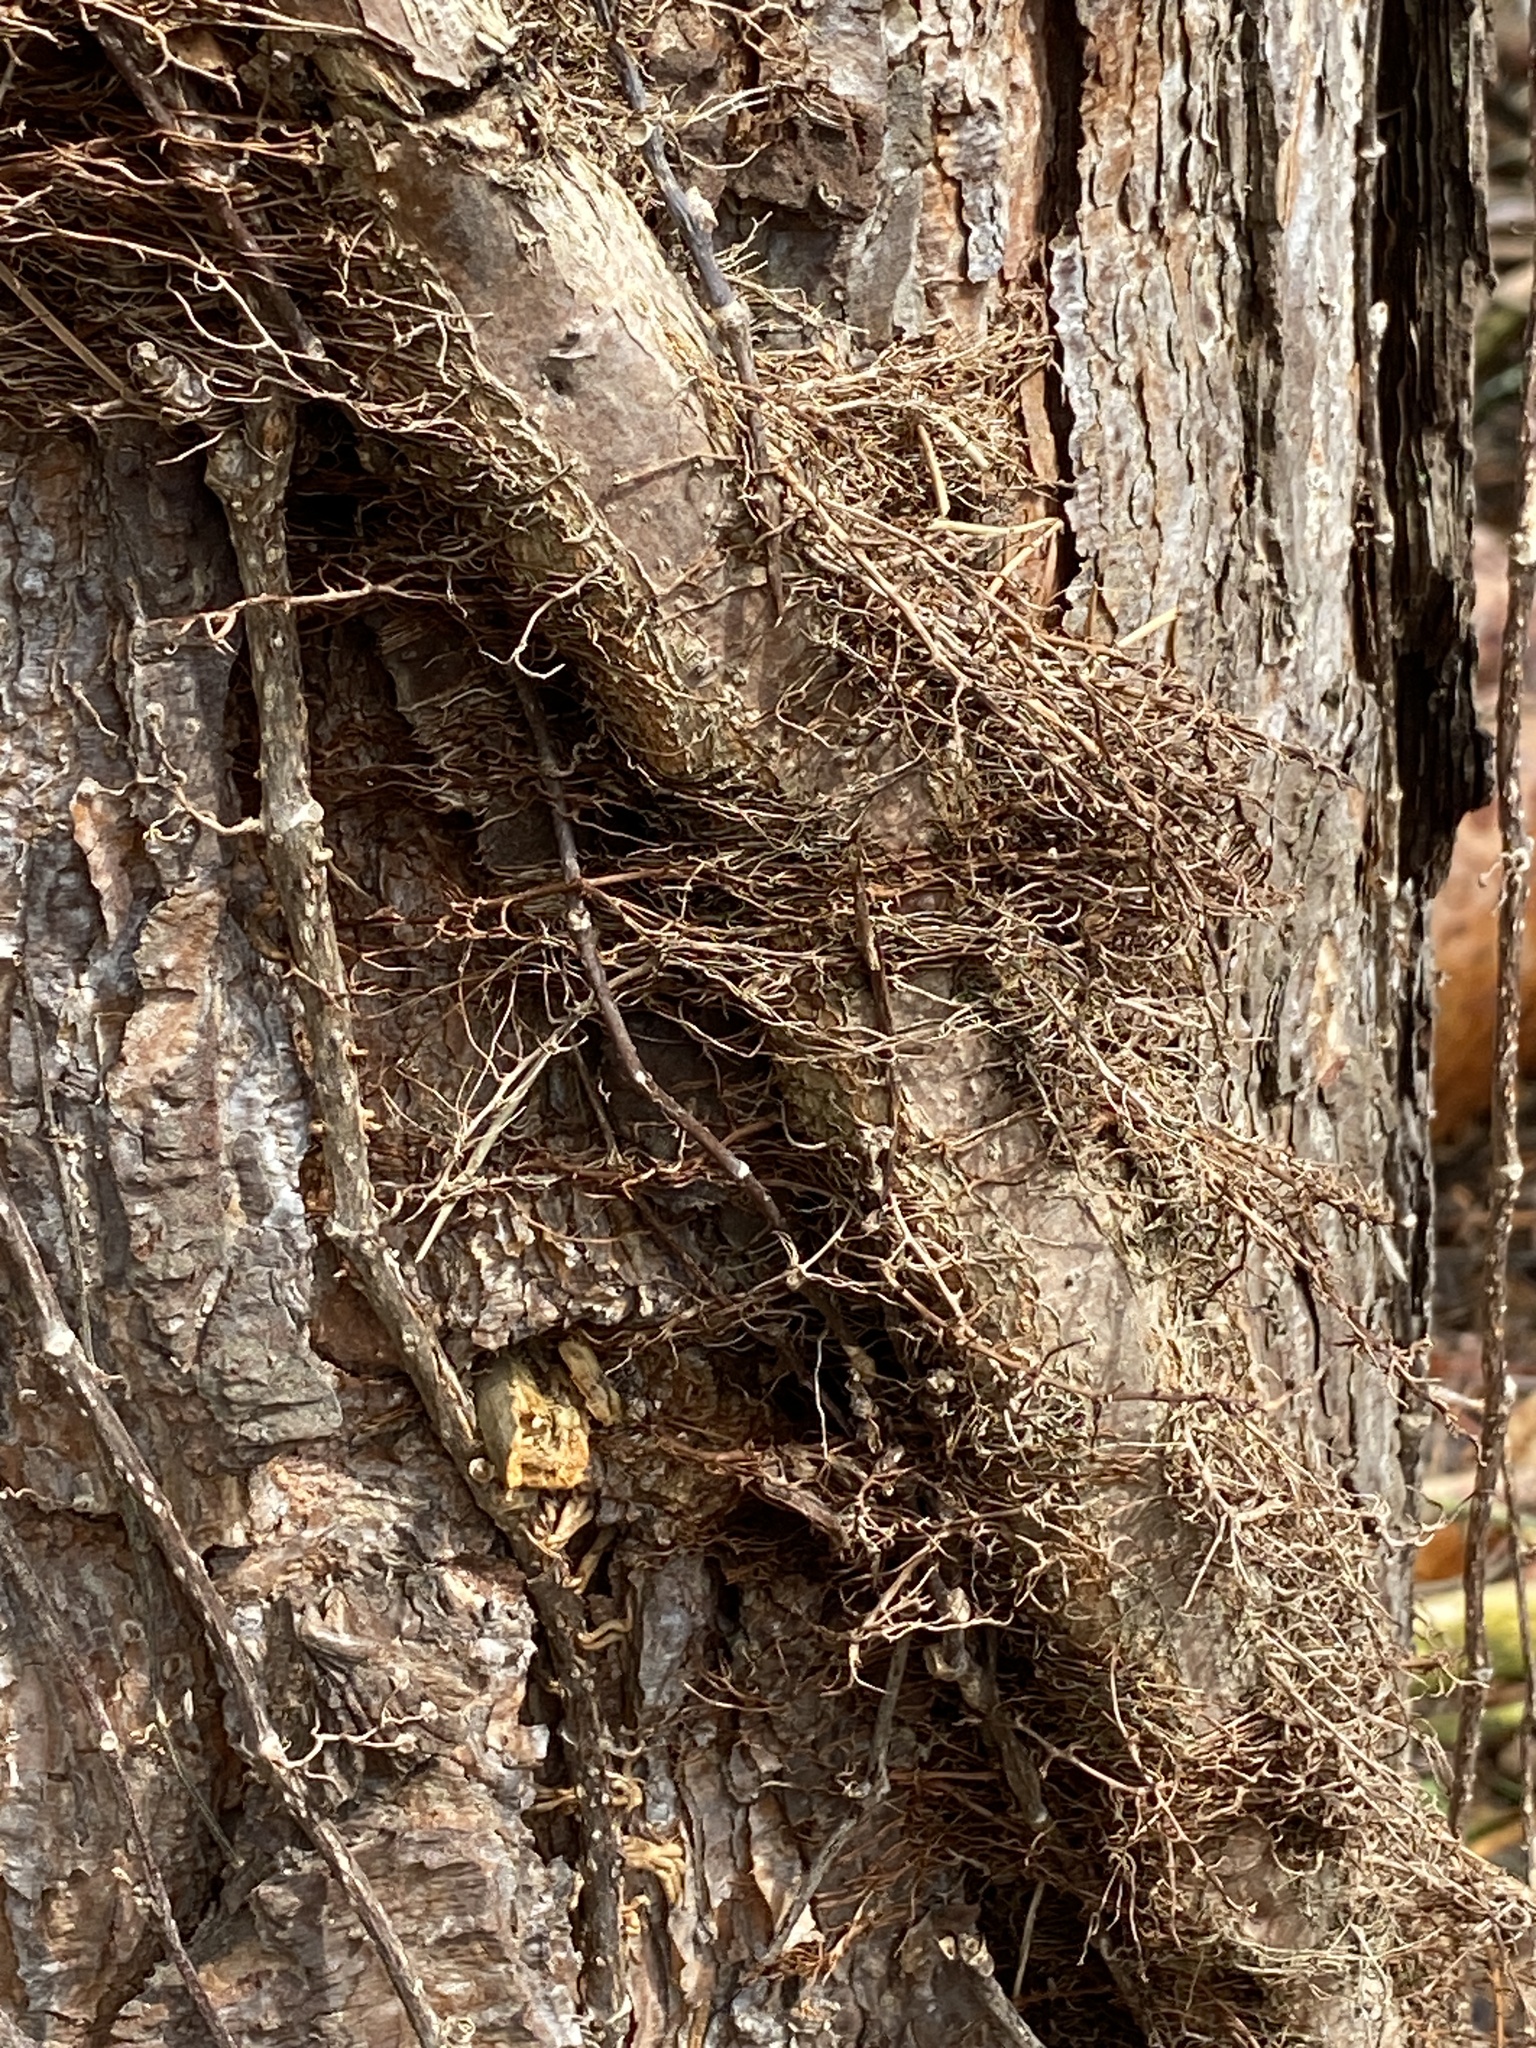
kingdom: Plantae
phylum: Tracheophyta
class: Magnoliopsida
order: Sapindales
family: Anacardiaceae
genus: Toxicodendron
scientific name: Toxicodendron radicans
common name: Poison ivy
